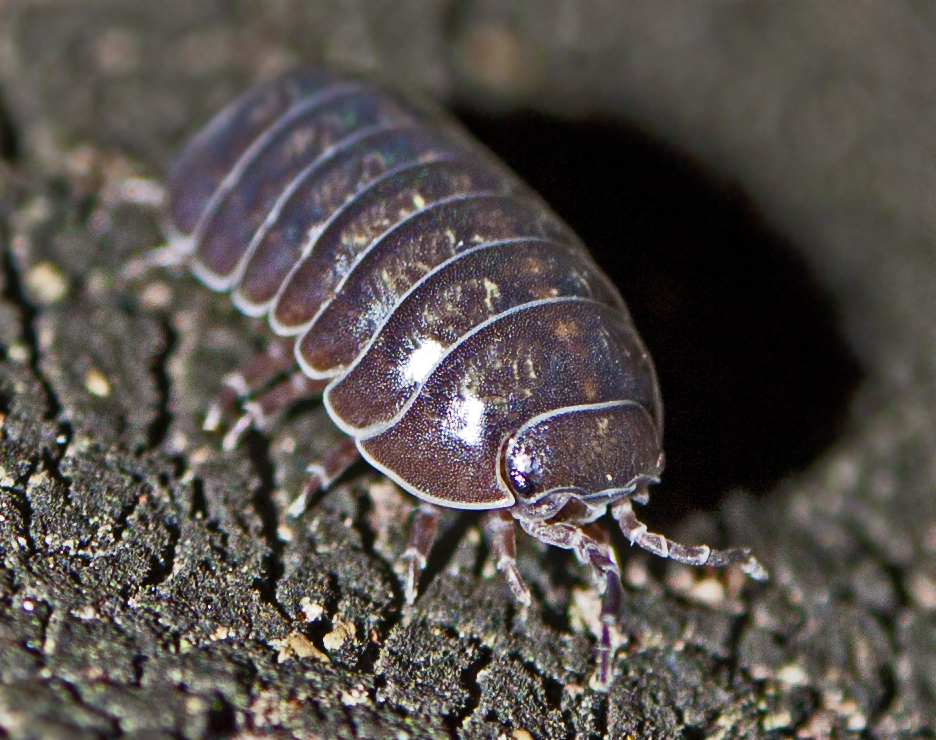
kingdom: Animalia
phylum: Arthropoda
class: Malacostraca
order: Isopoda
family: Armadillidiidae
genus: Armadillidium
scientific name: Armadillidium vulgare
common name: Common pill woodlouse
